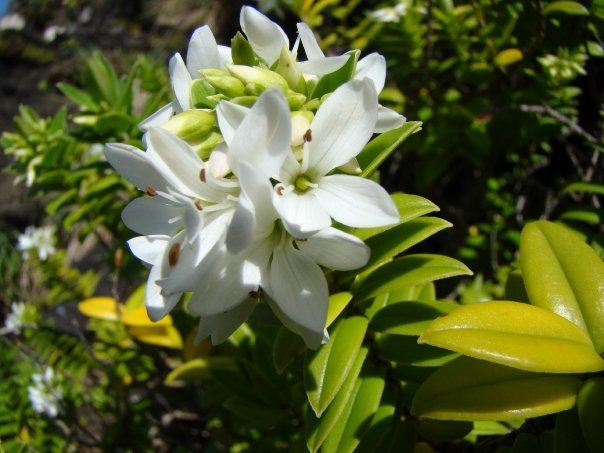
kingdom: Plantae
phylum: Tracheophyta
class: Magnoliopsida
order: Lamiales
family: Plantaginaceae
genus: Veronica
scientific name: Veronica elliptica
